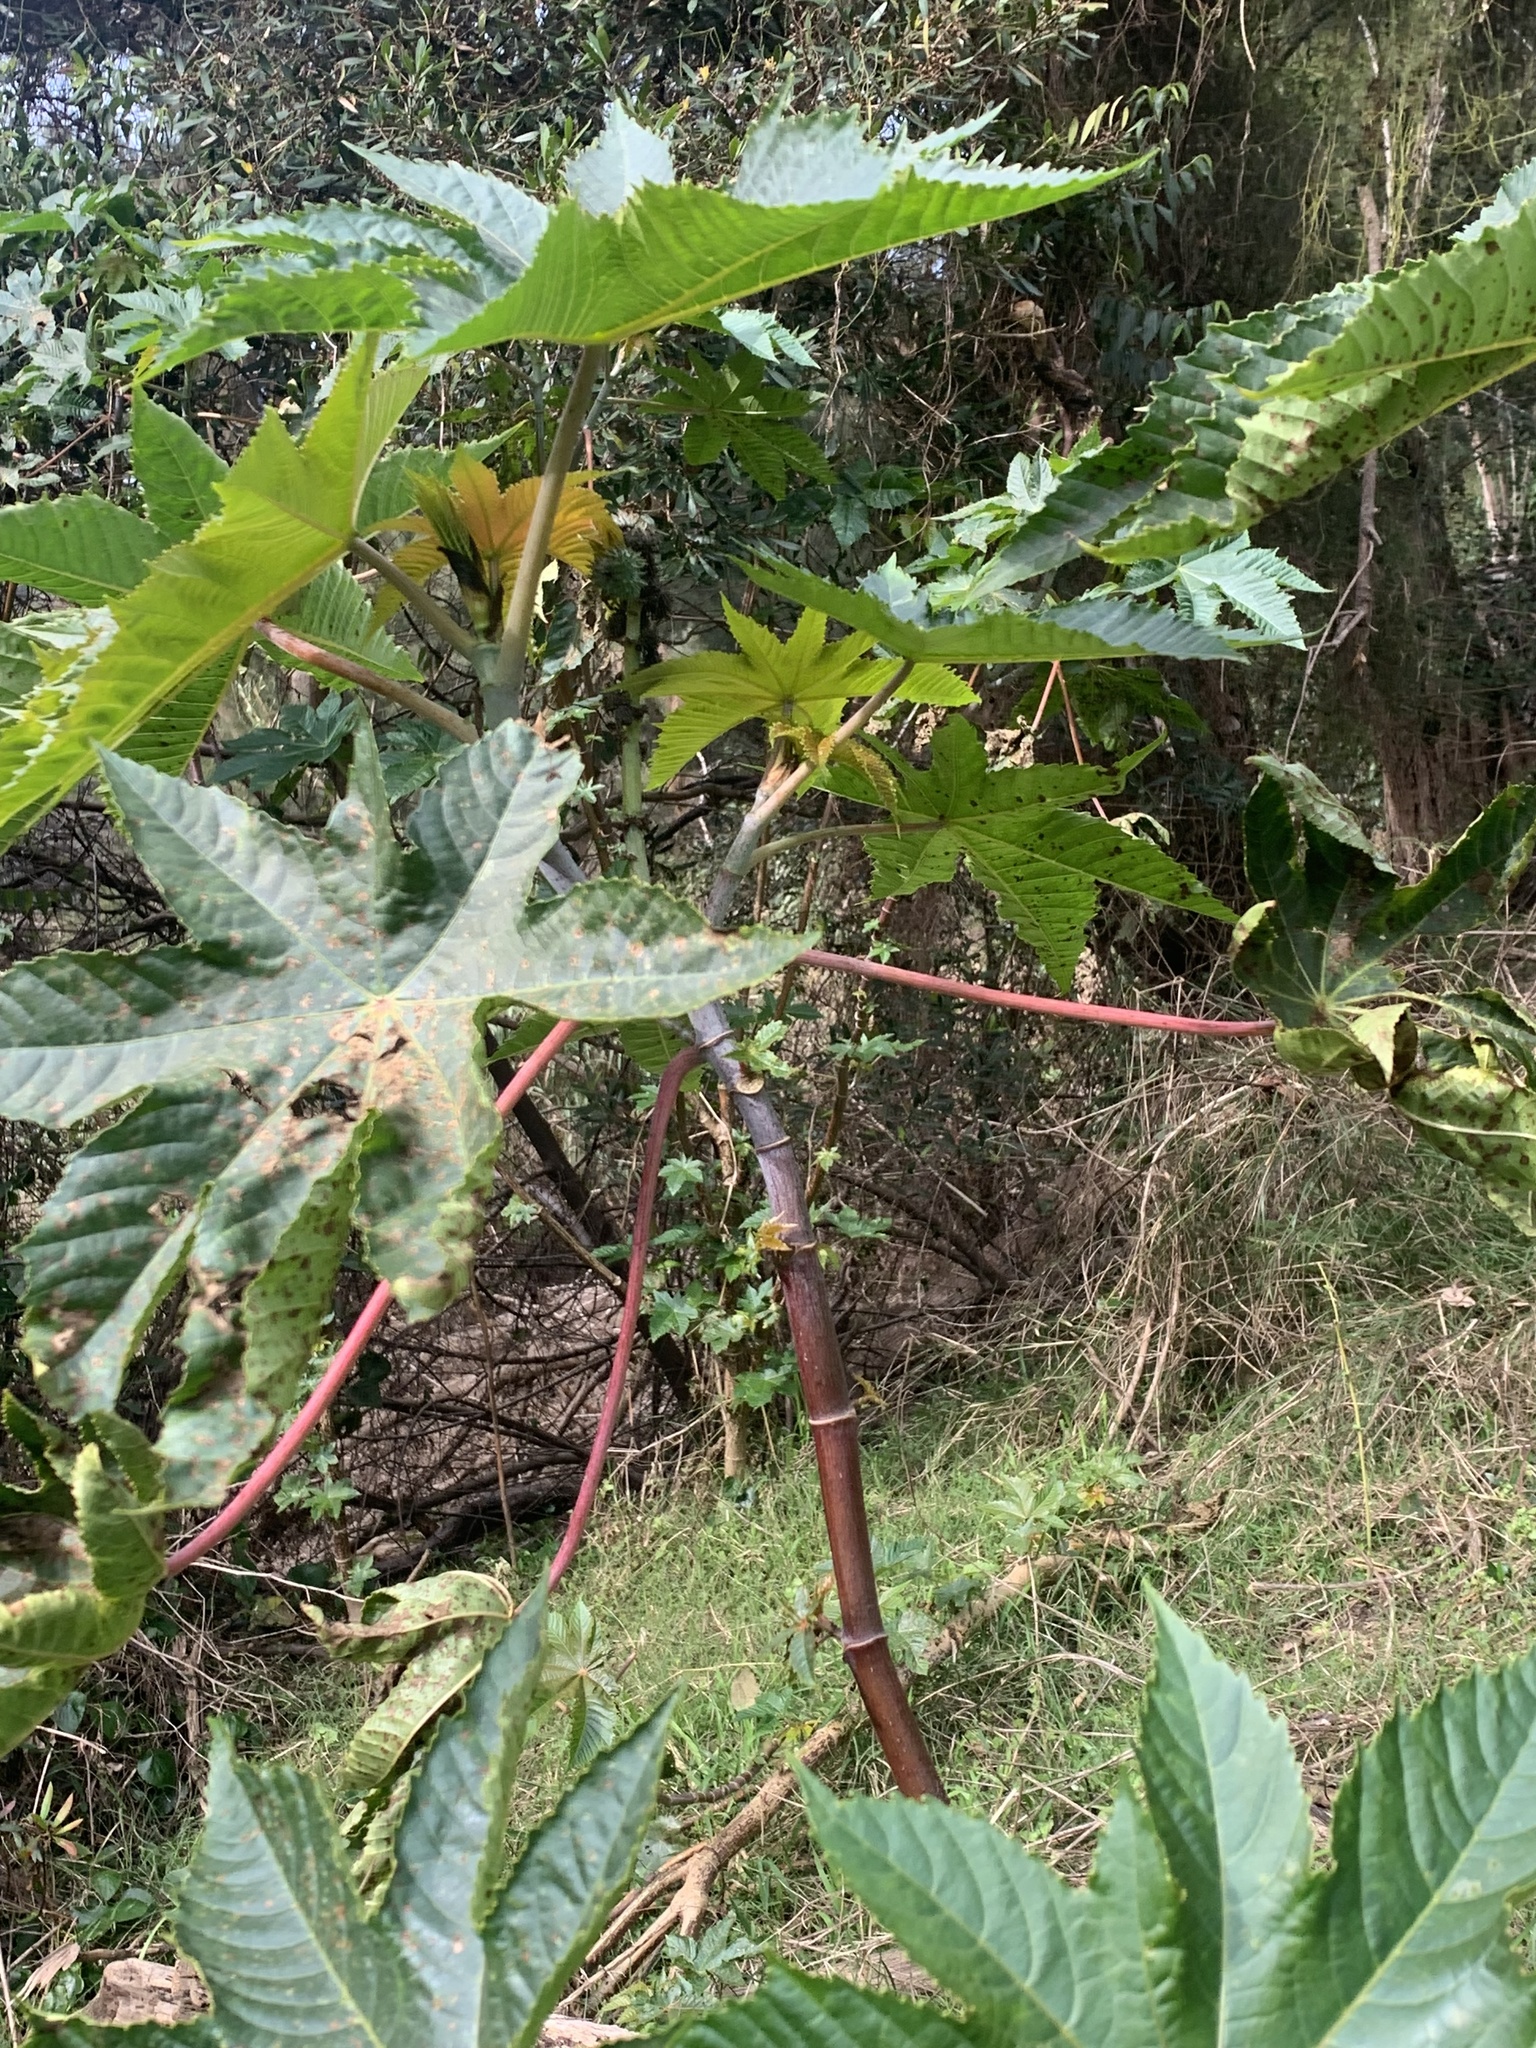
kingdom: Plantae
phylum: Tracheophyta
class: Magnoliopsida
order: Malpighiales
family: Euphorbiaceae
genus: Ricinus
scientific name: Ricinus communis
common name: Castor-oil-plant
